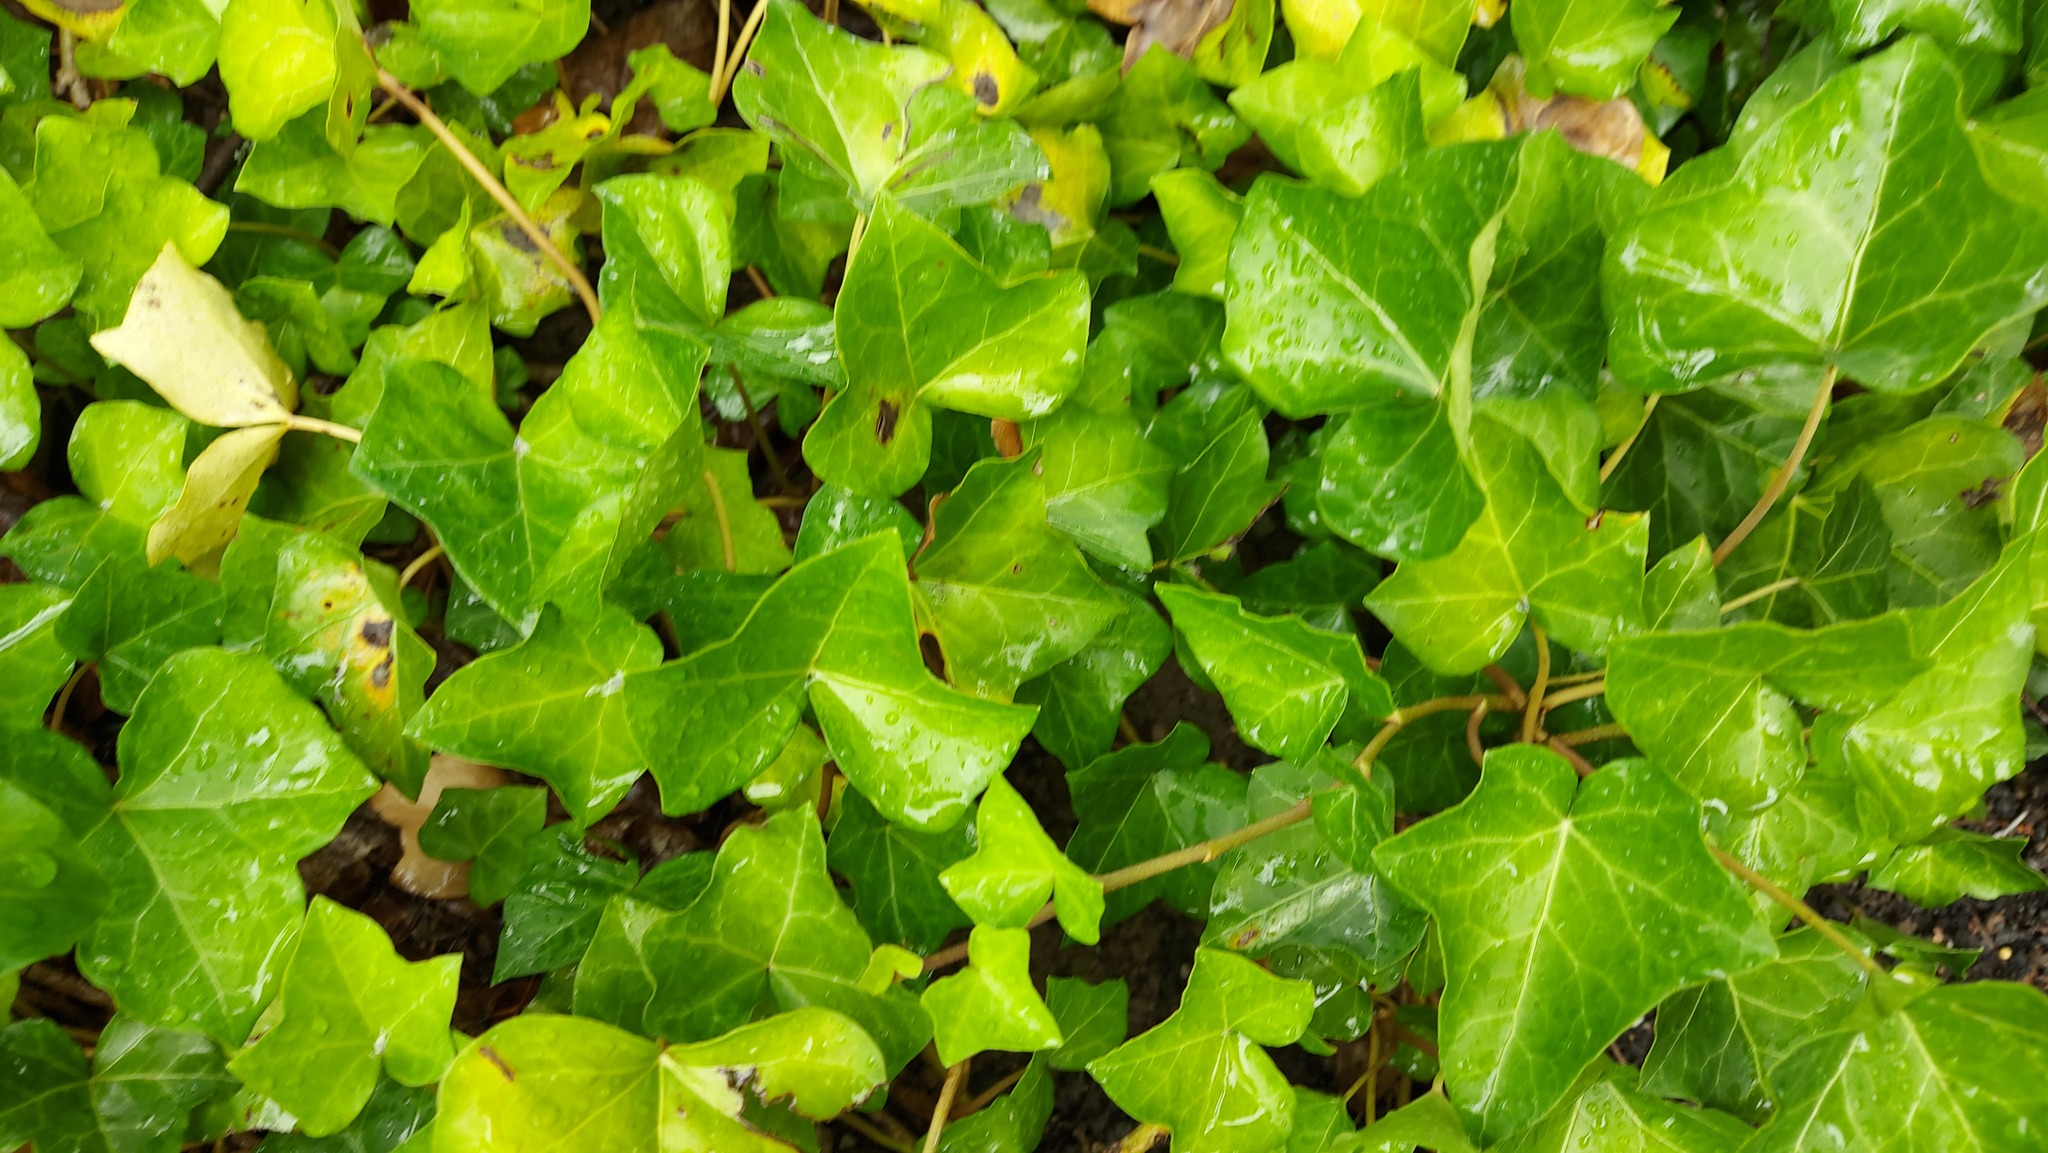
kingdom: Plantae
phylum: Tracheophyta
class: Magnoliopsida
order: Apiales
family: Araliaceae
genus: Hedera
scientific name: Hedera helix
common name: Ivy
